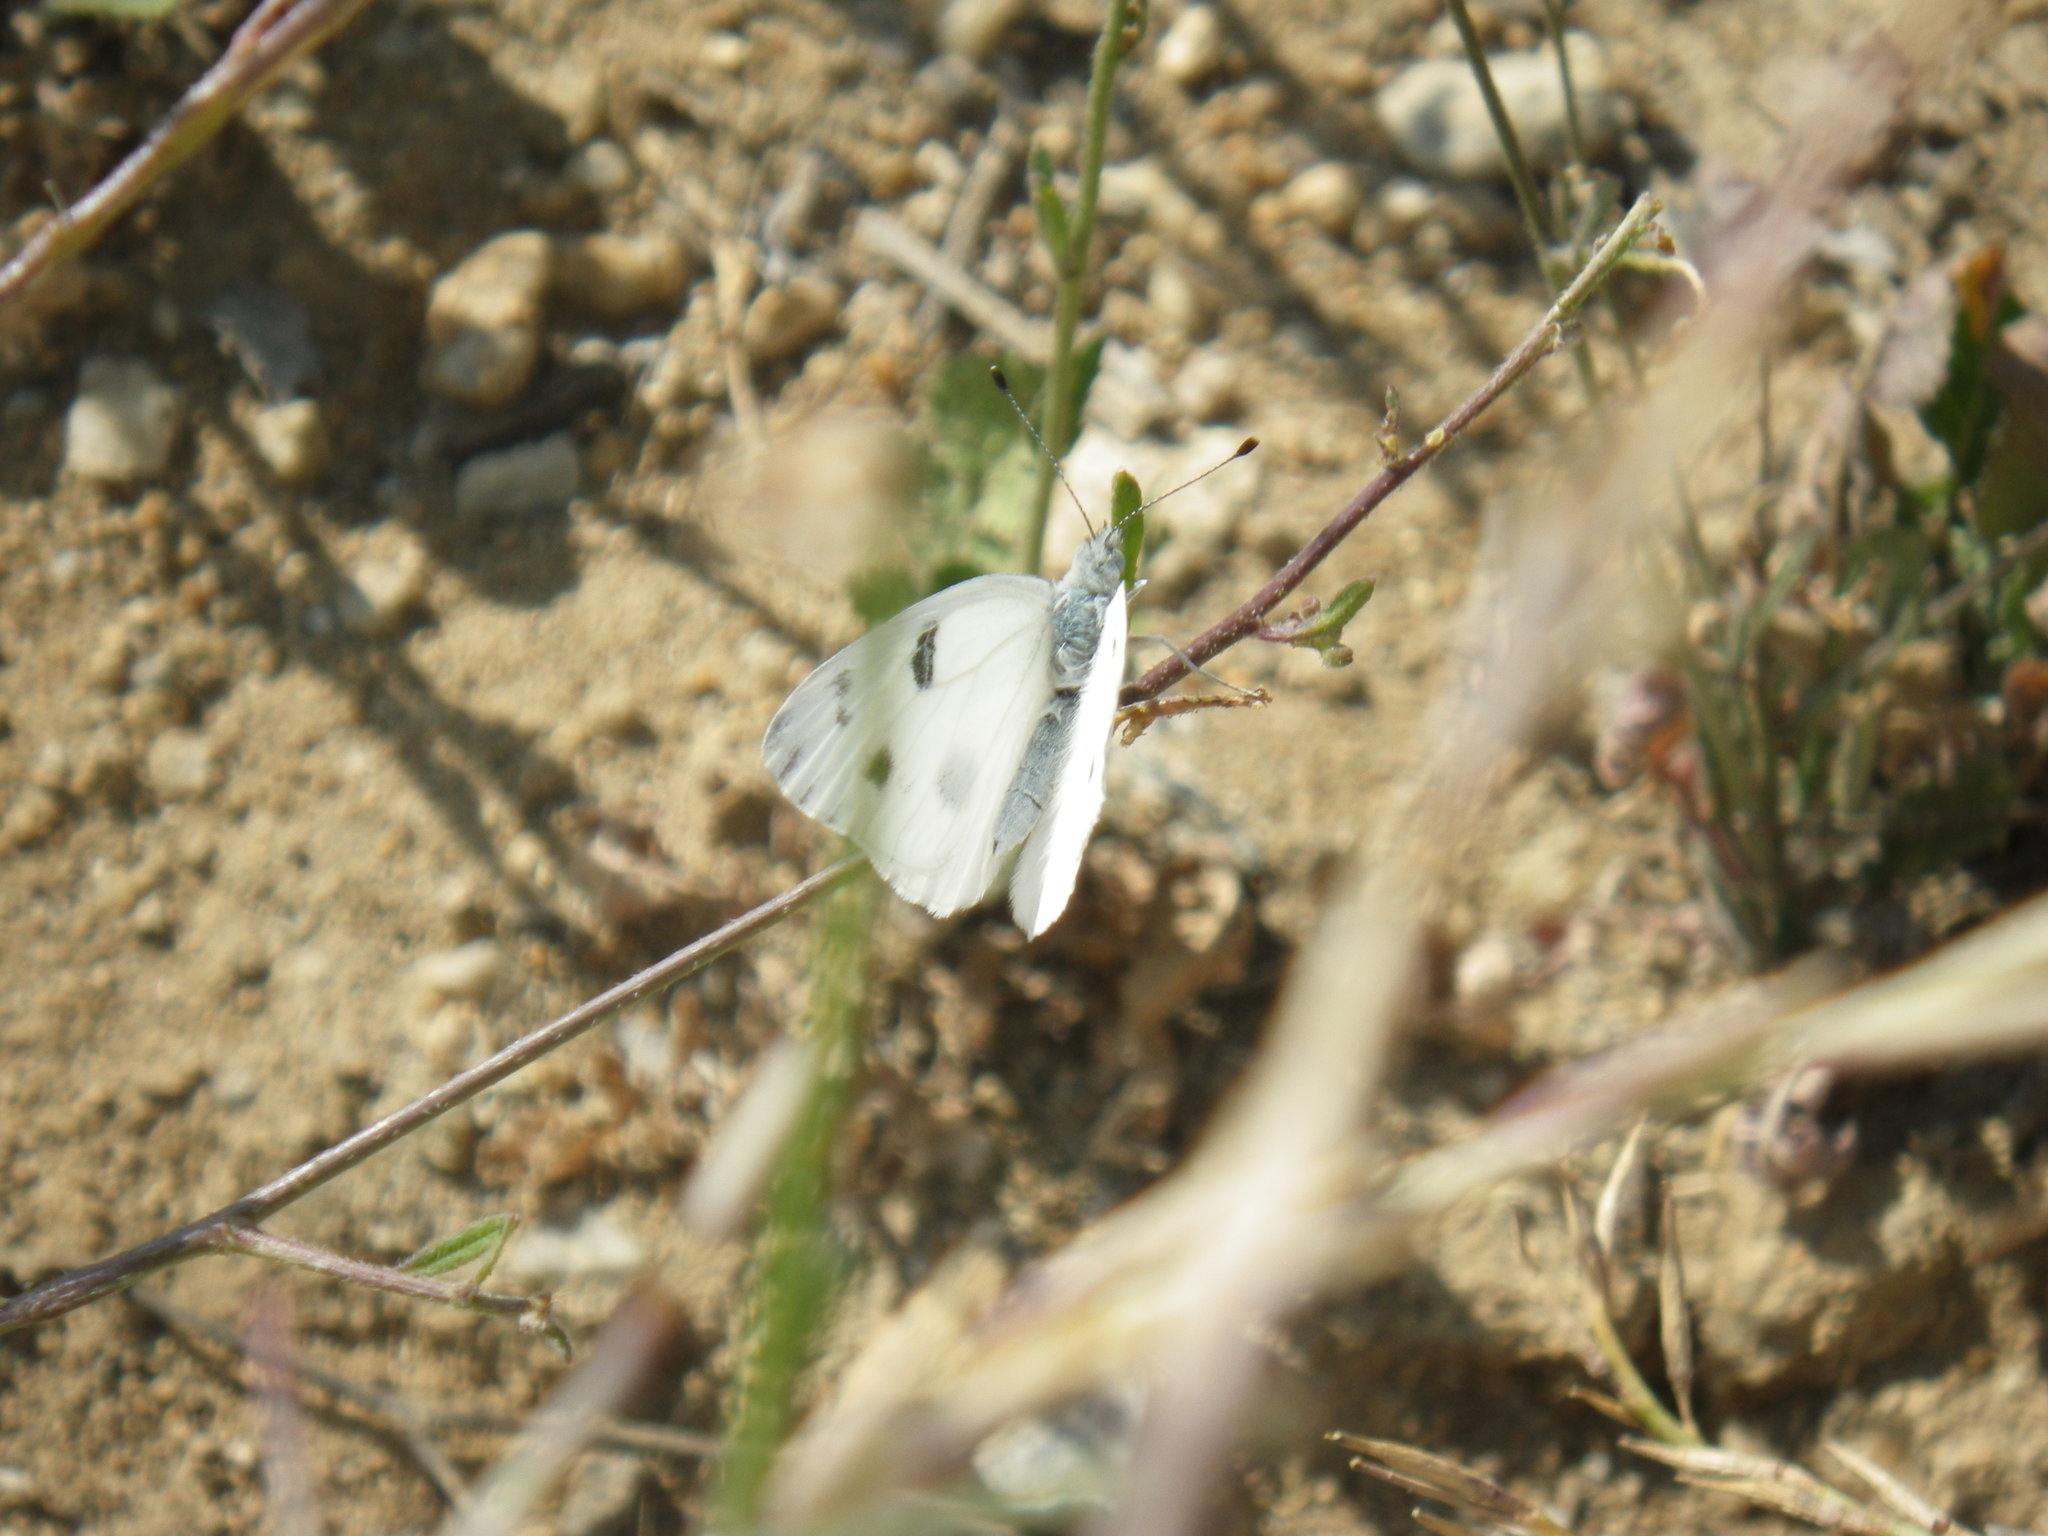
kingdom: Animalia
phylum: Arthropoda
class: Insecta
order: Lepidoptera
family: Pieridae
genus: Pontia
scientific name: Pontia protodice
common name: Checkered white
